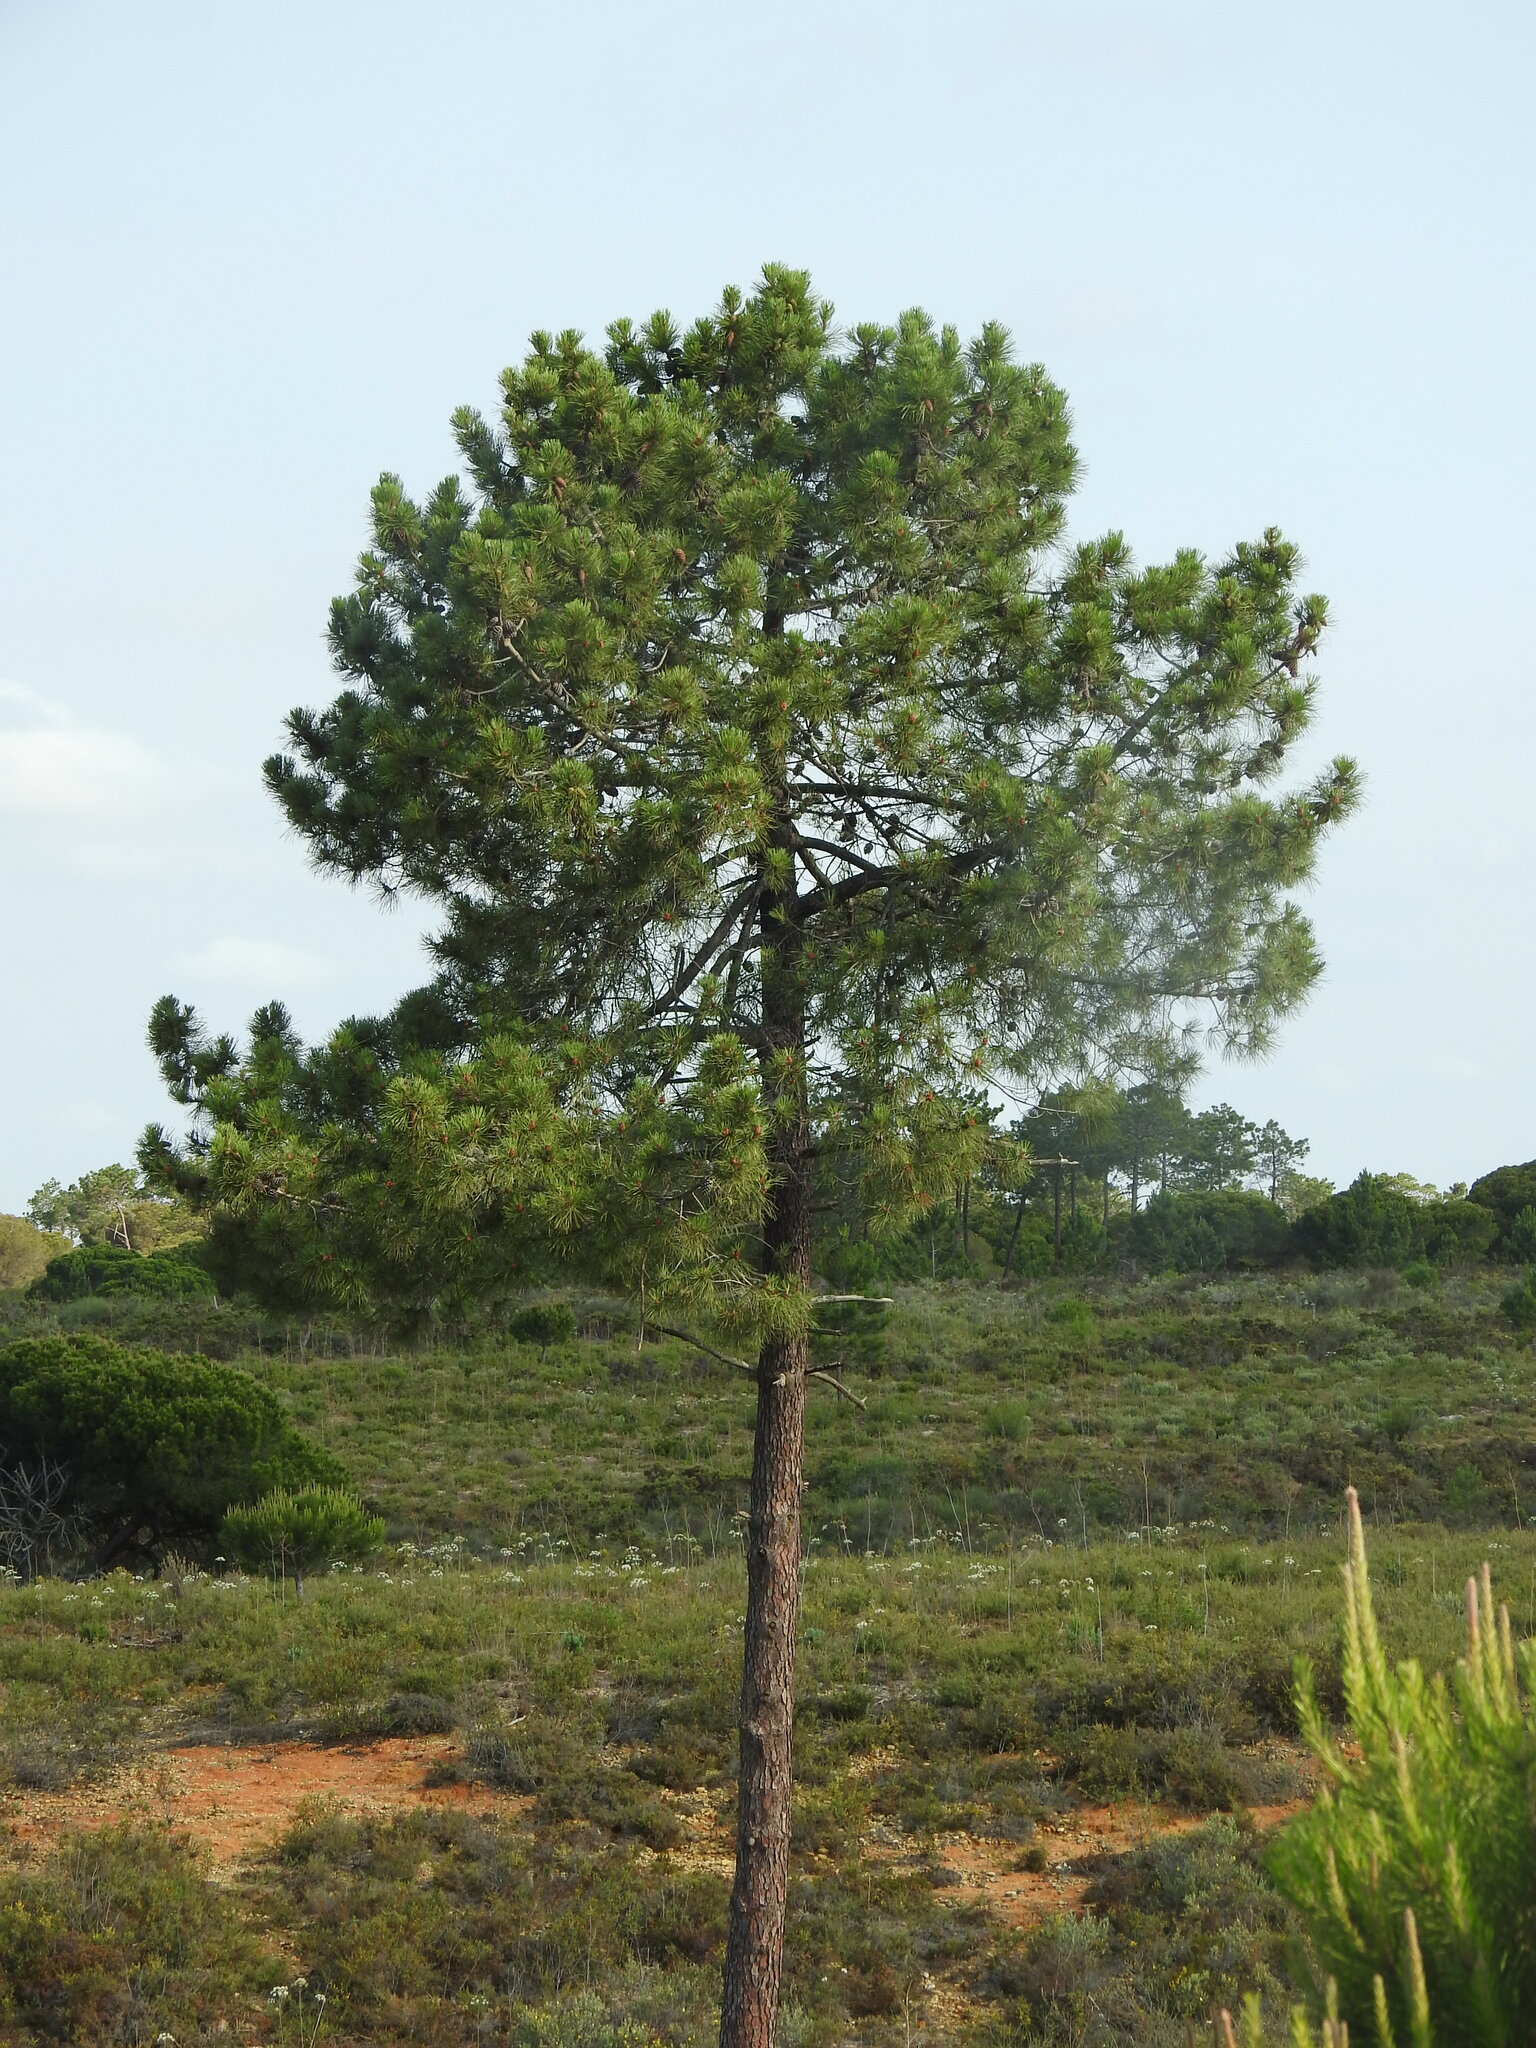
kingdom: Plantae
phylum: Tracheophyta
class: Pinopsida
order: Pinales
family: Pinaceae
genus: Pinus
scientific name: Pinus pinaster
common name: Maritime pine
